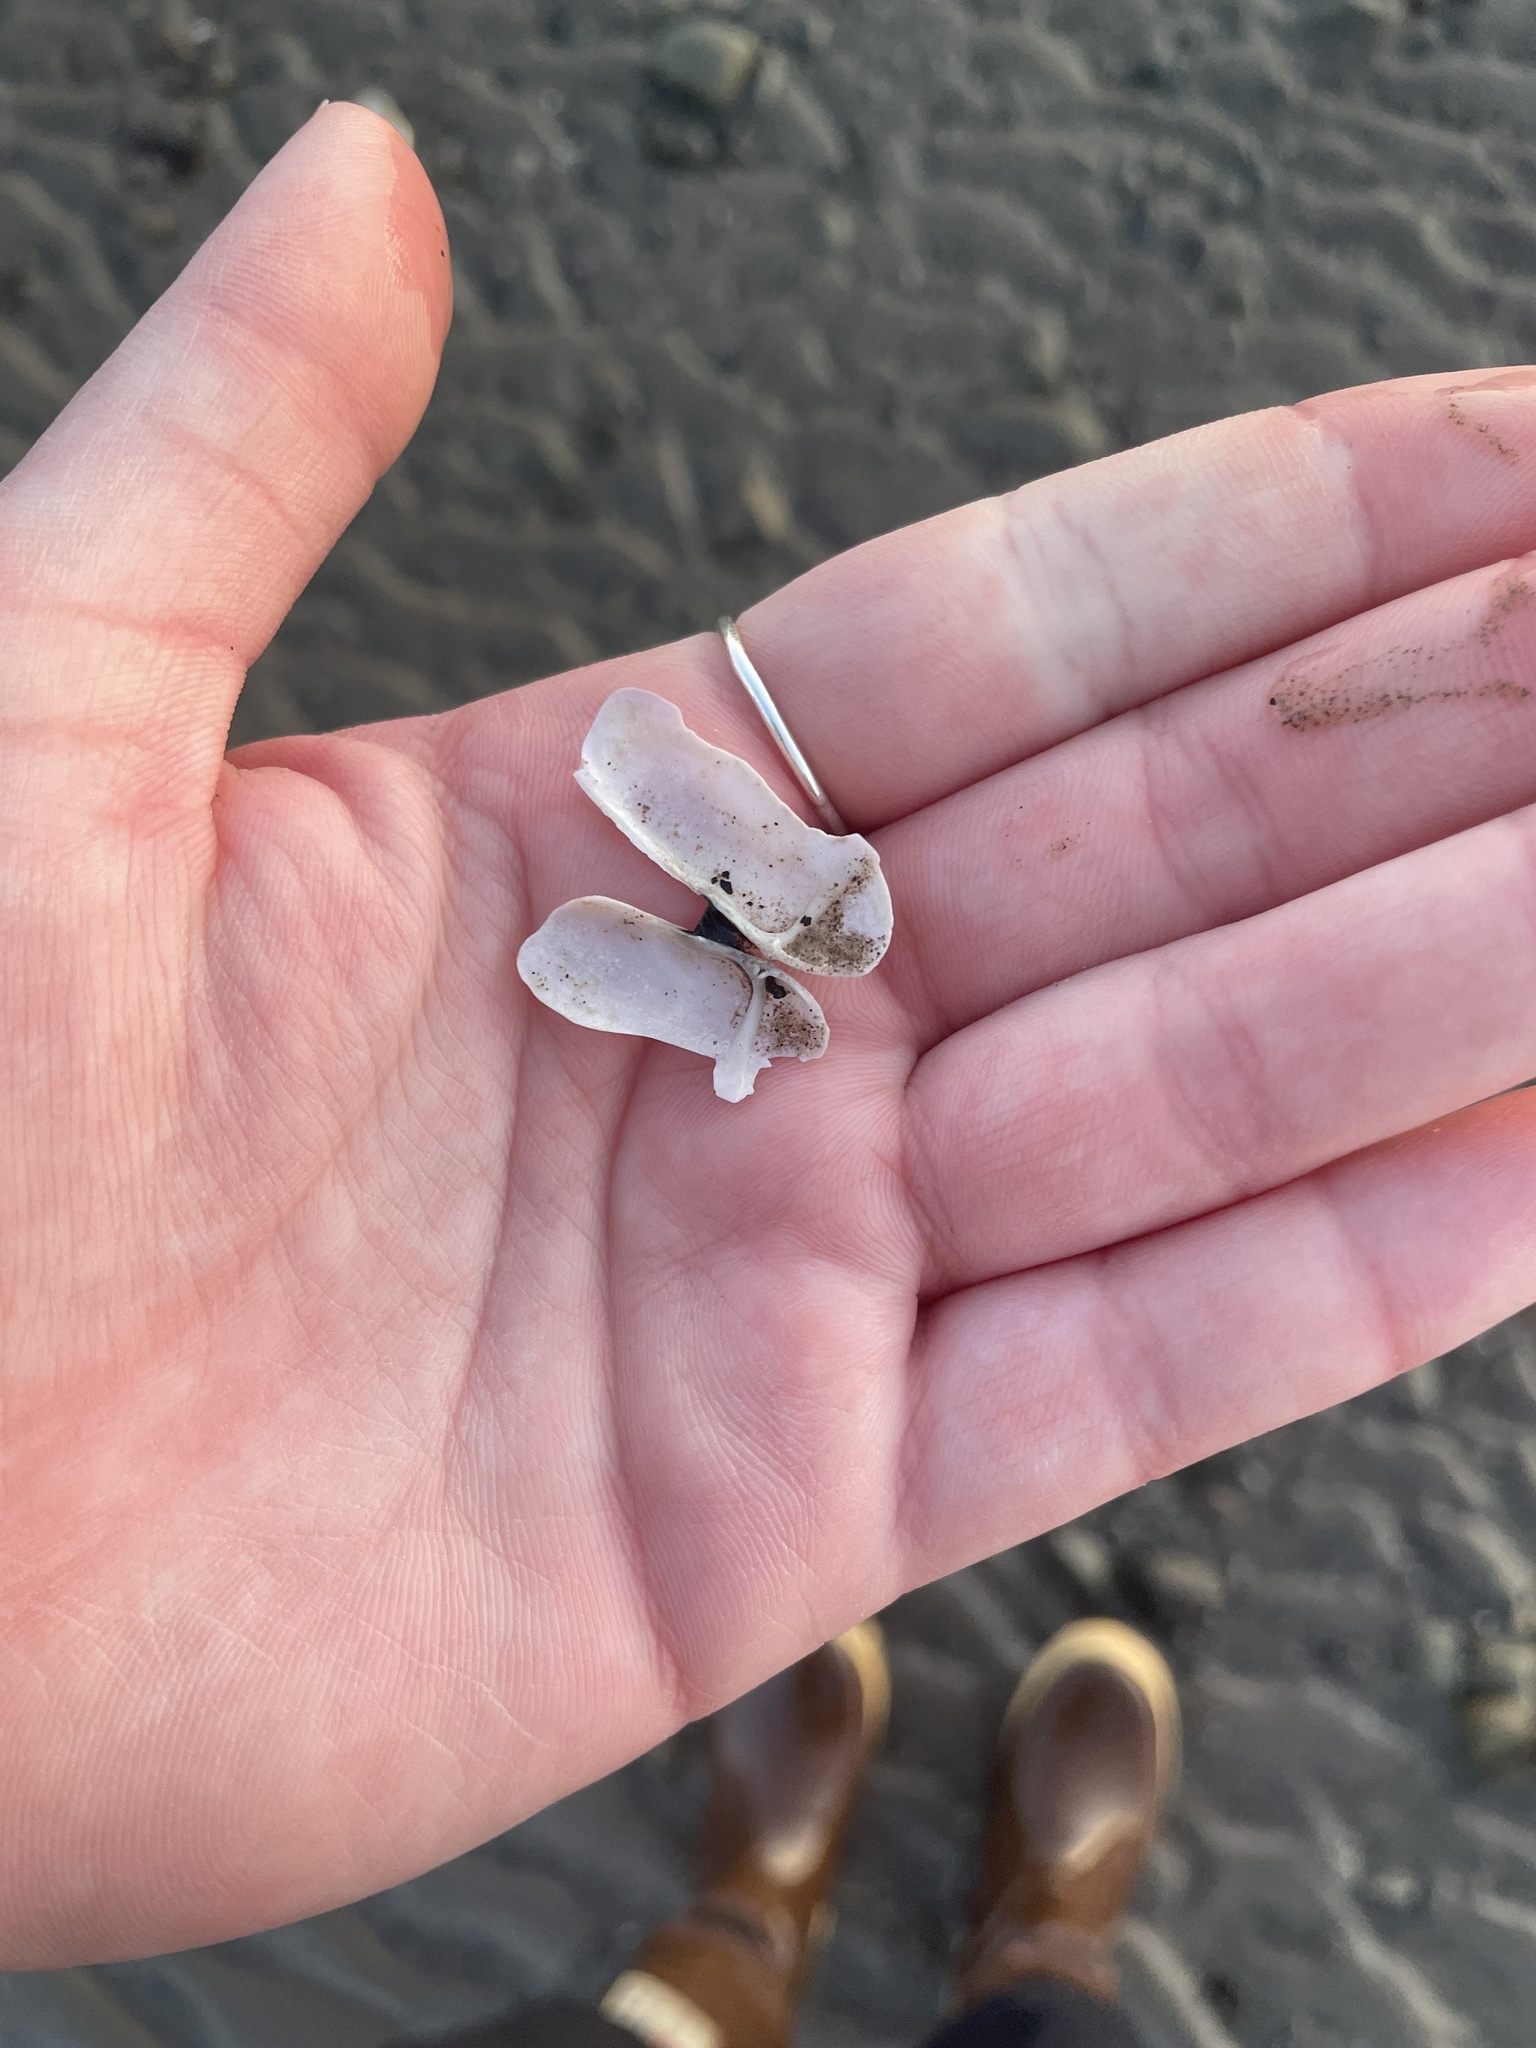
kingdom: Animalia
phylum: Mollusca
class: Bivalvia
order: Adapedonta
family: Pharidae
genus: Siliqua
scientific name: Siliqua costata
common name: Atlantic razor
